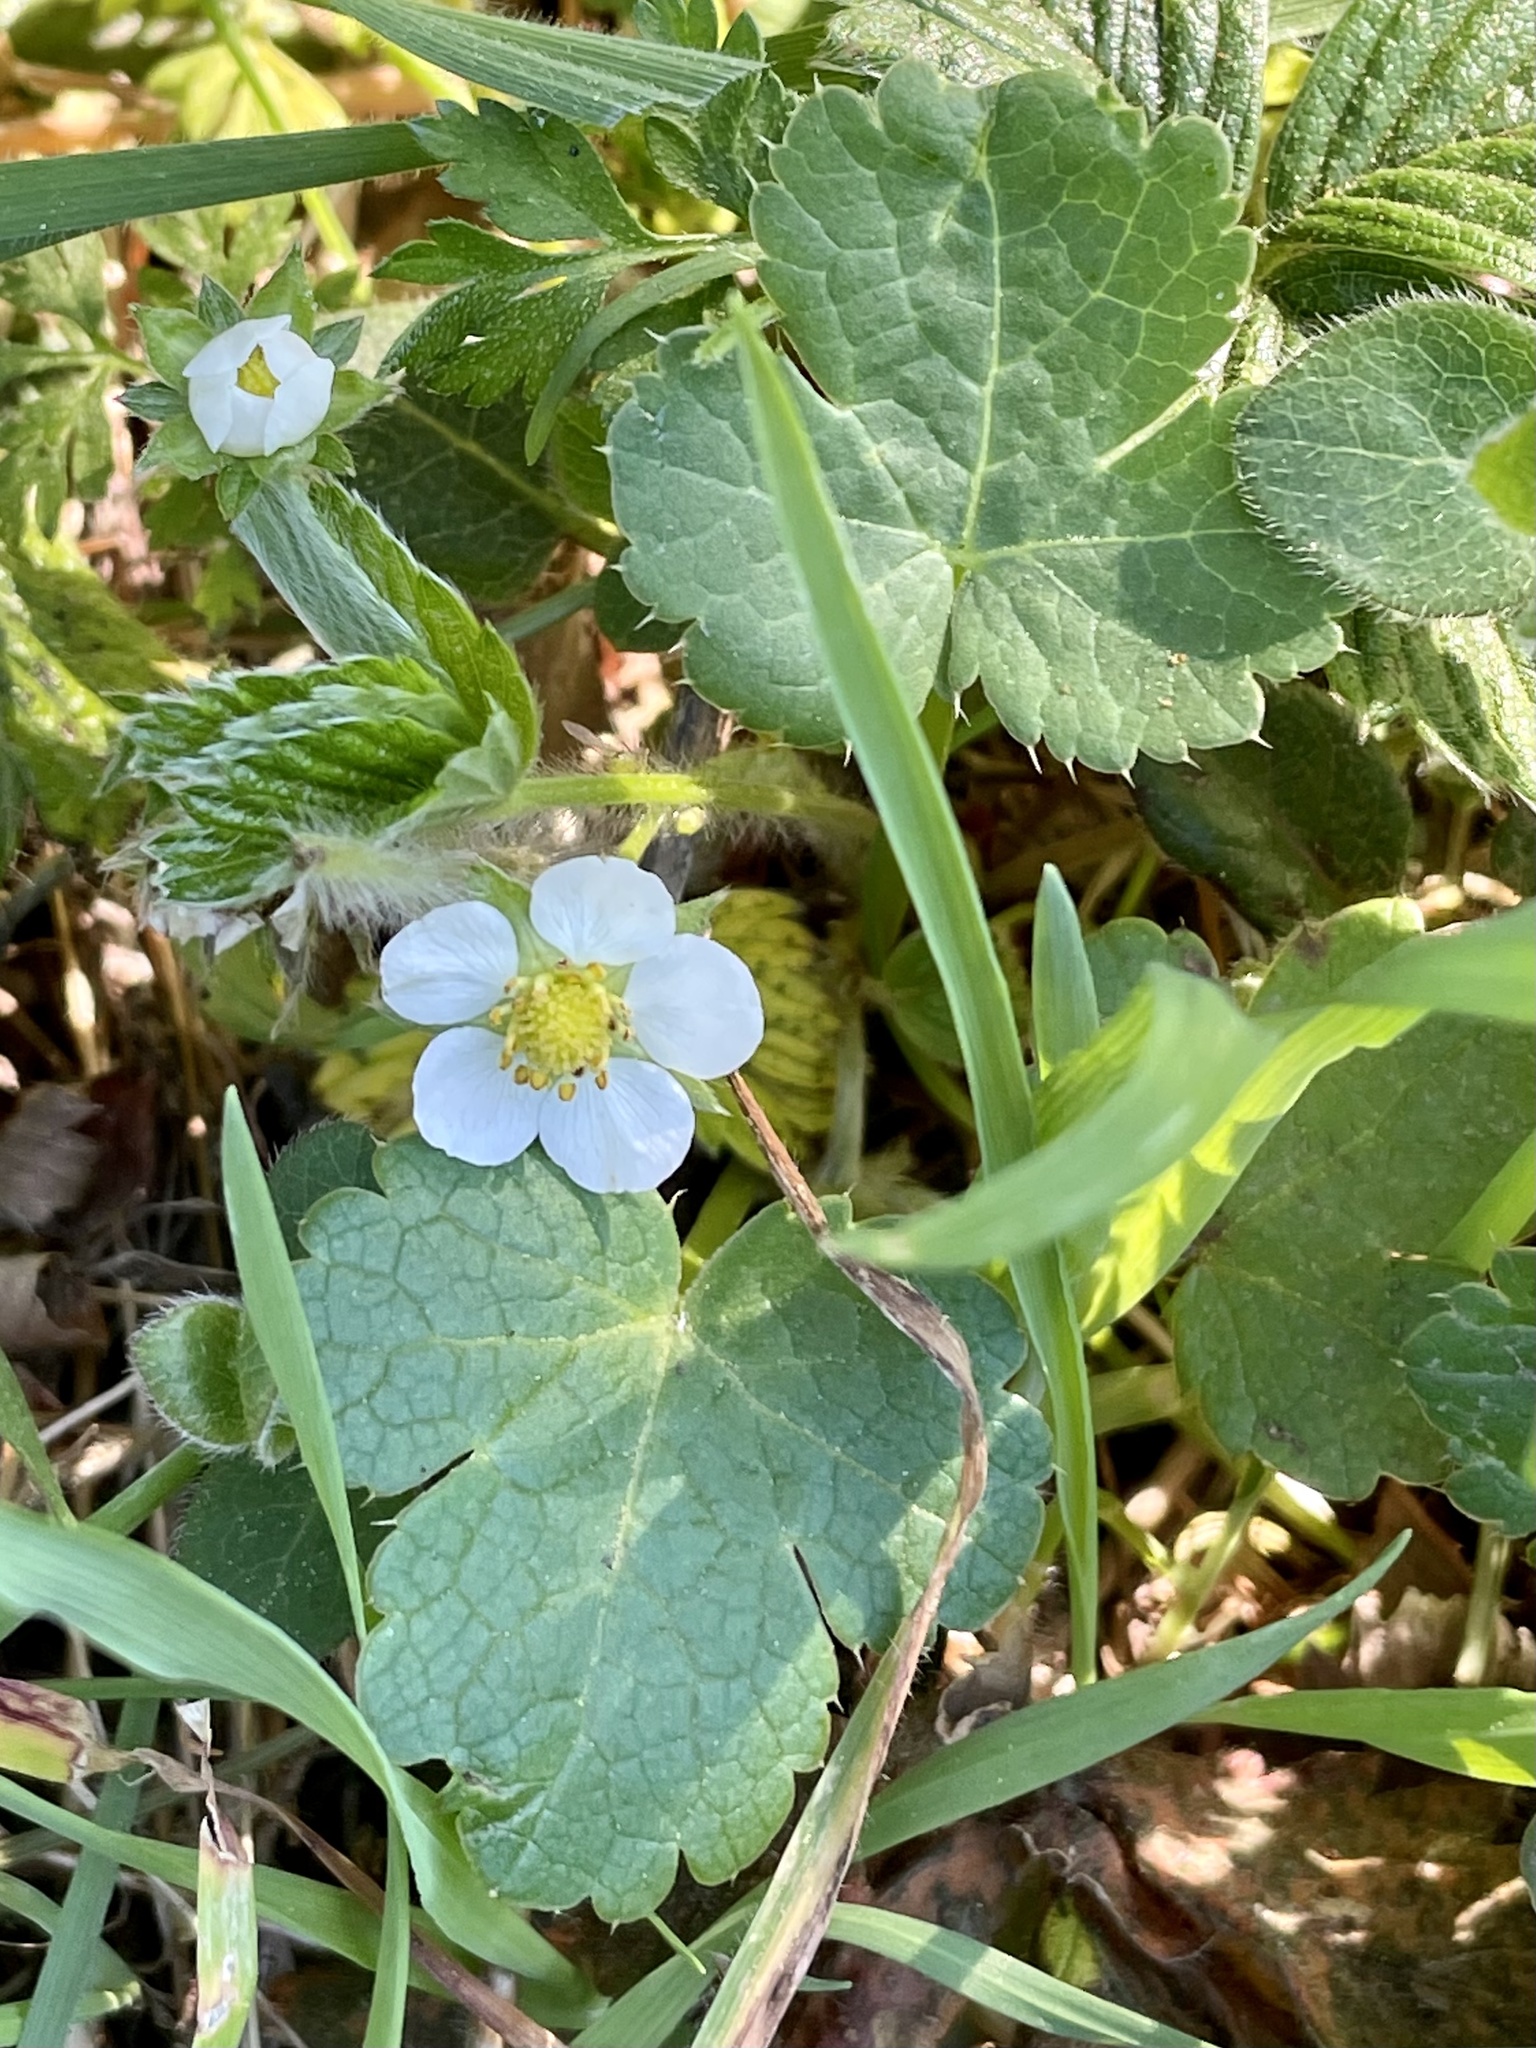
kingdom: Plantae
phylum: Tracheophyta
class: Magnoliopsida
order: Rosales
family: Rosaceae
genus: Fragaria
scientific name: Fragaria vesca
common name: Wild strawberry
